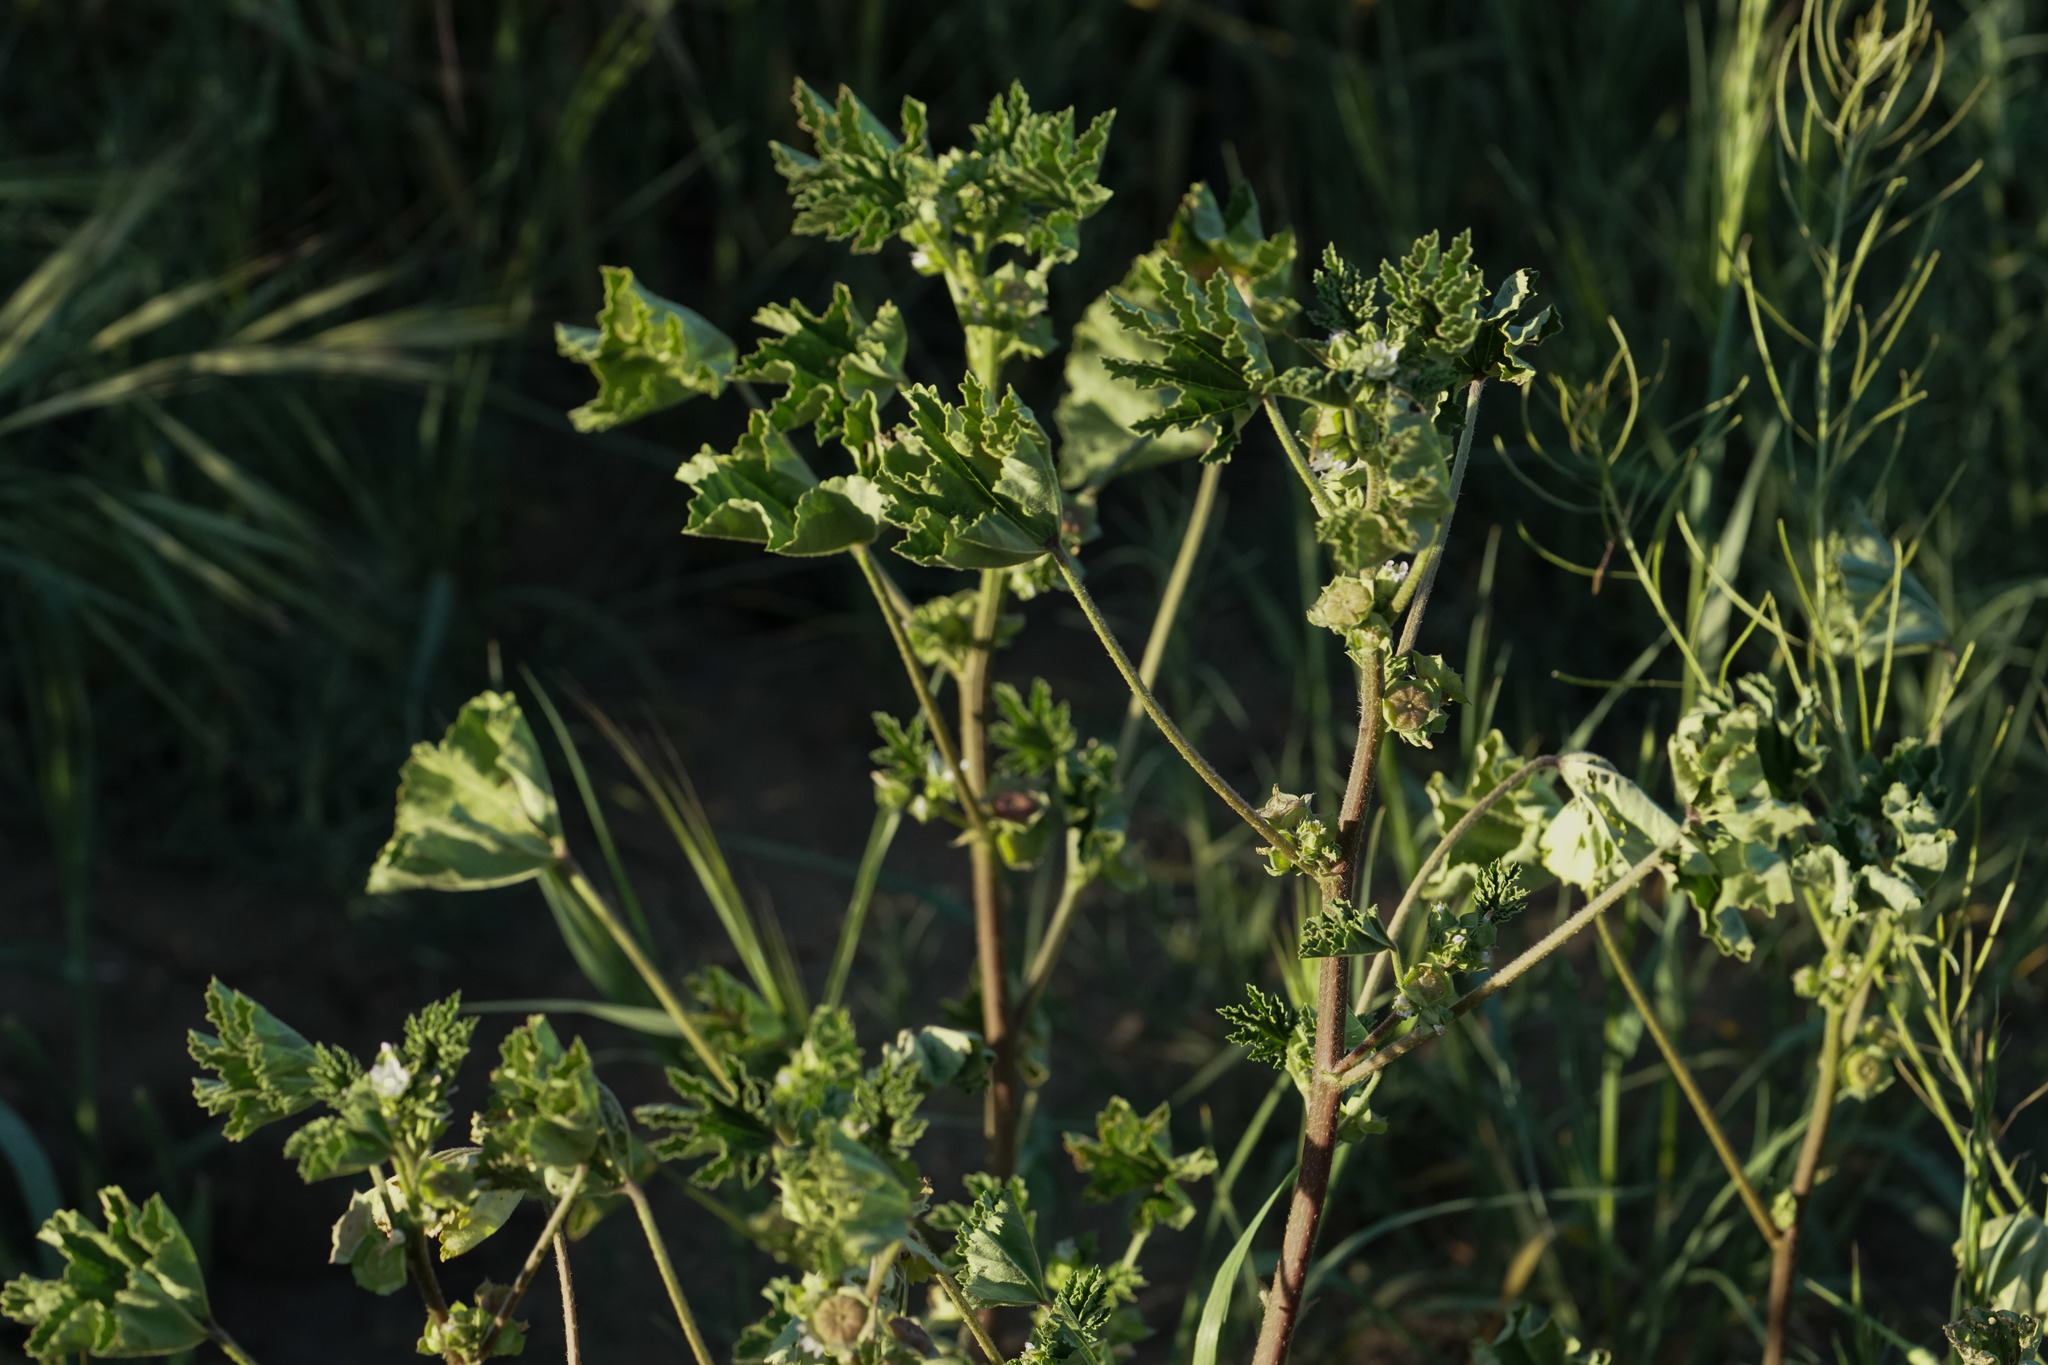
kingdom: Plantae
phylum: Tracheophyta
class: Magnoliopsida
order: Malvales
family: Malvaceae
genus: Malva
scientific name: Malva parviflora
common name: Least mallow
